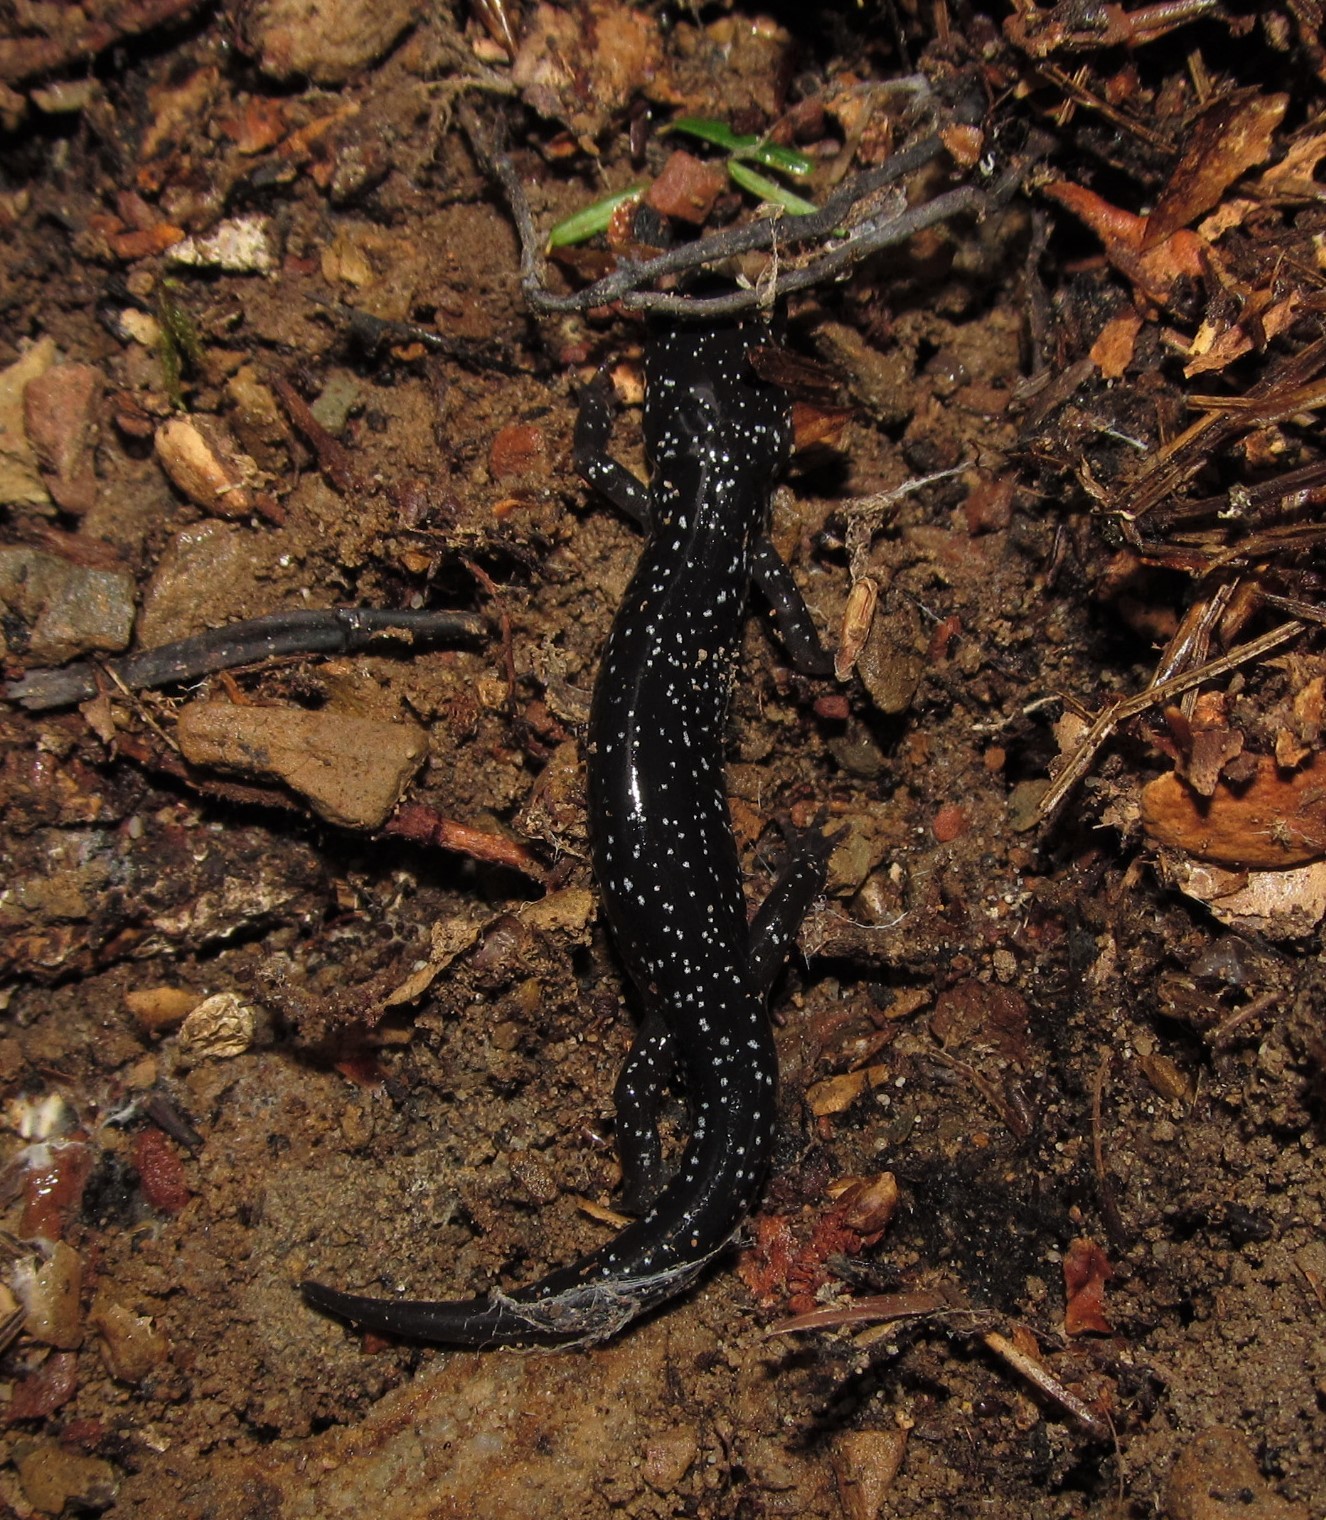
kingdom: Animalia
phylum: Chordata
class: Amphibia
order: Caudata
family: Plethodontidae
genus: Plethodon
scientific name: Plethodon cylindraceus
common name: White-spotted slimy salamander
